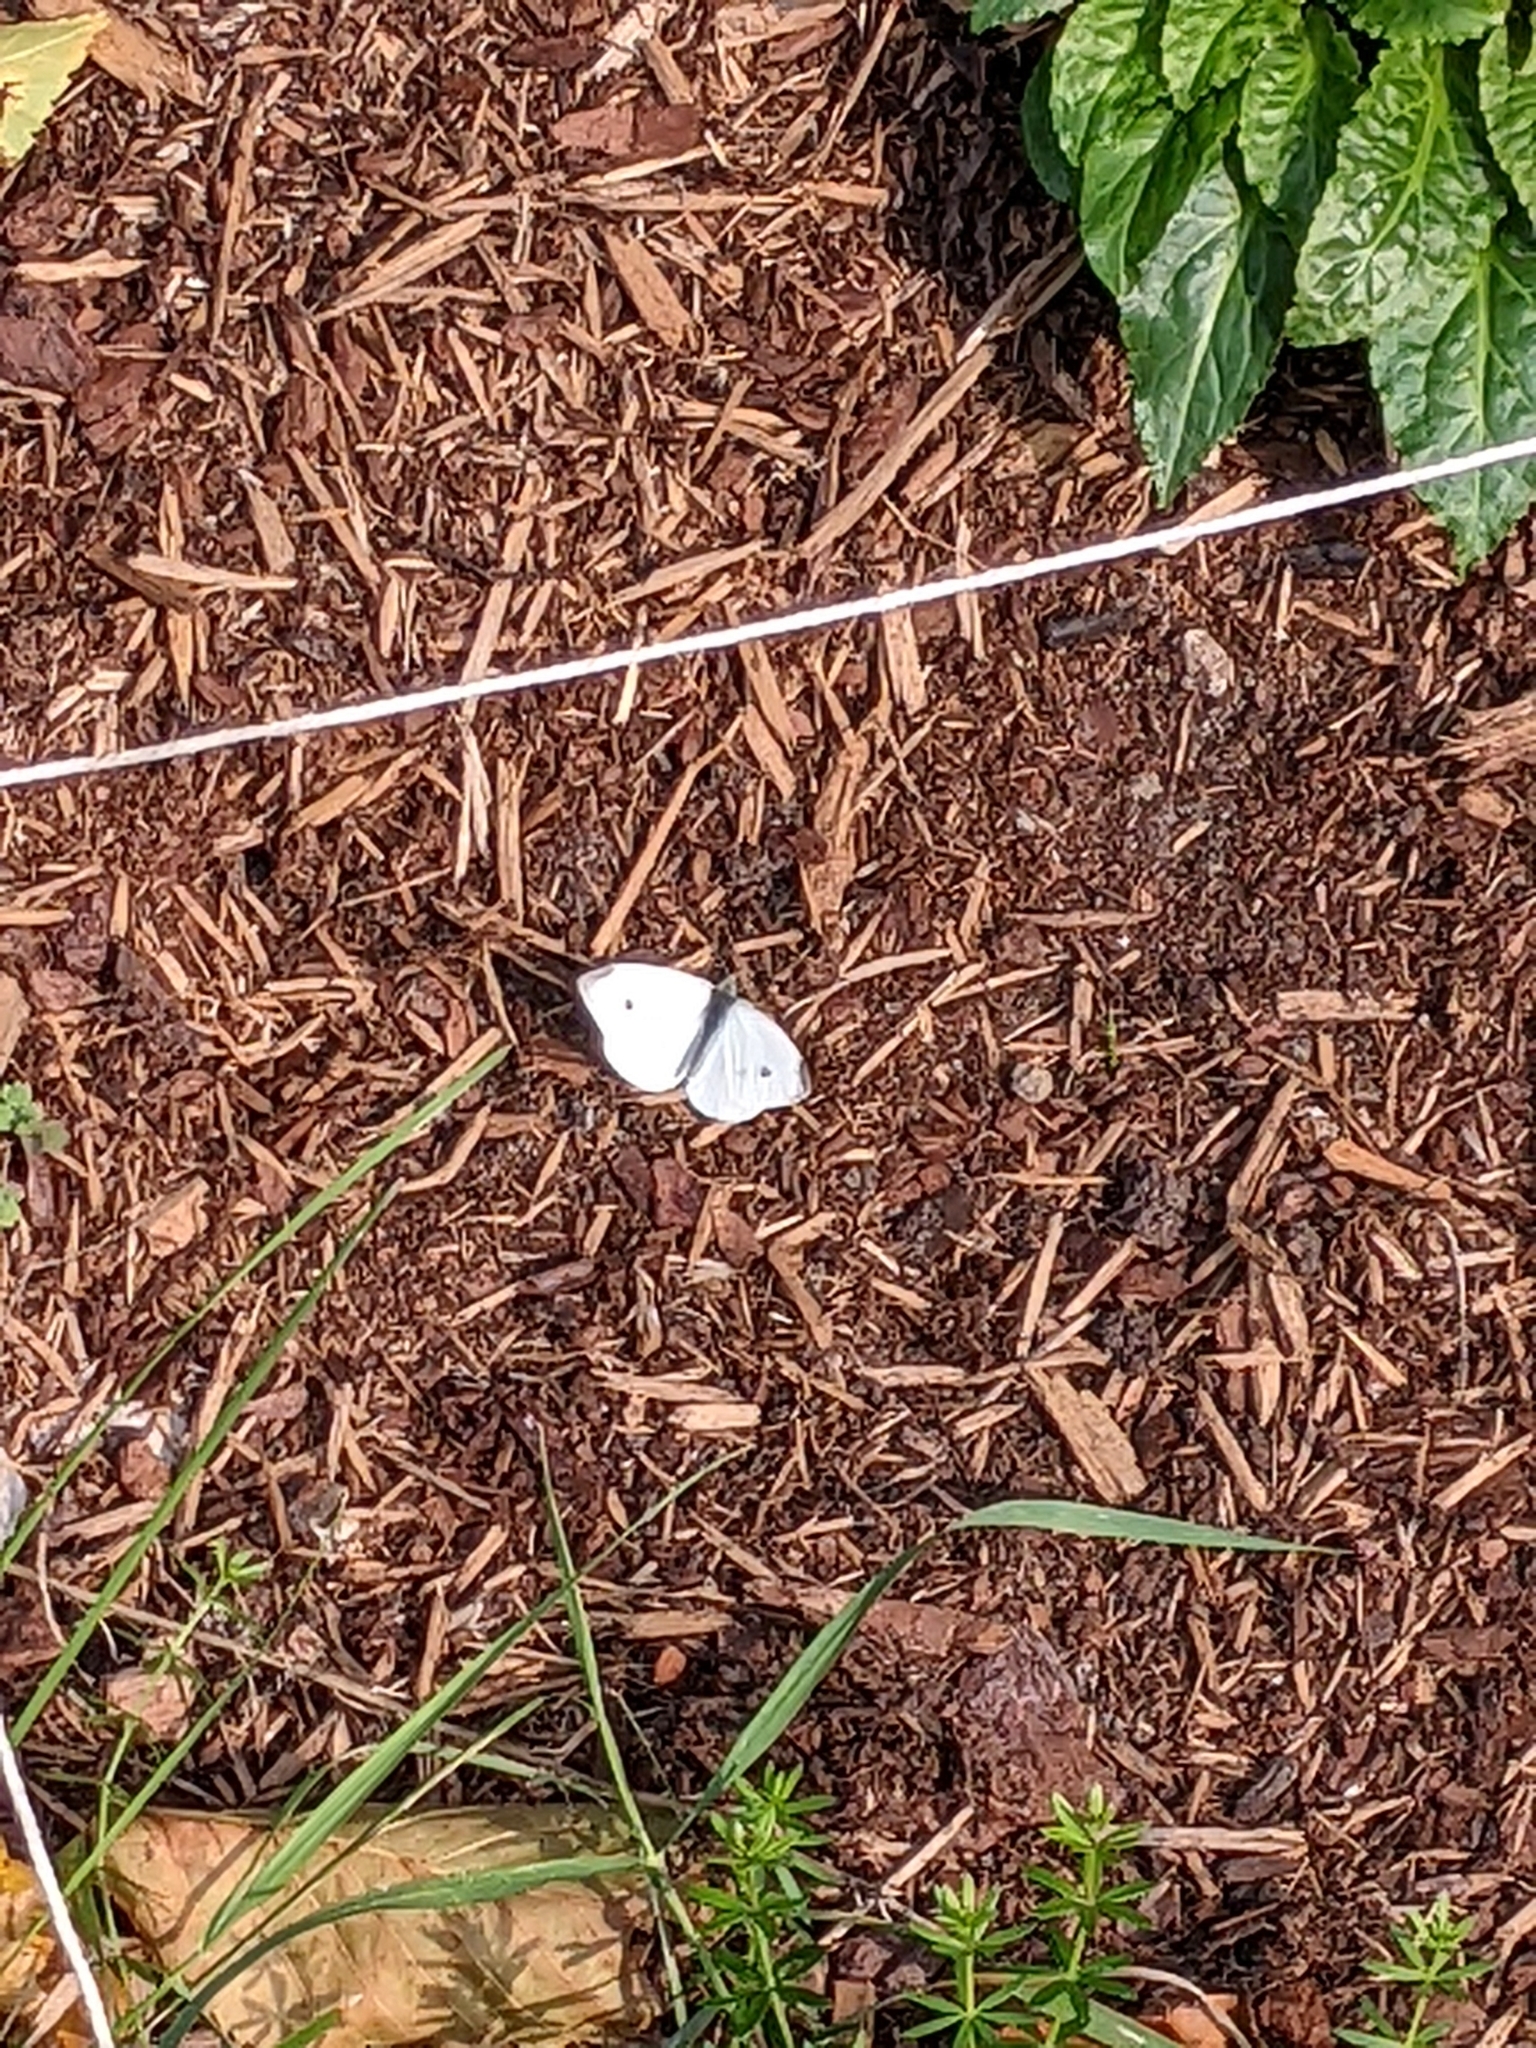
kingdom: Animalia
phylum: Arthropoda
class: Insecta
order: Lepidoptera
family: Pieridae
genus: Pieris
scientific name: Pieris rapae
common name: Small white
